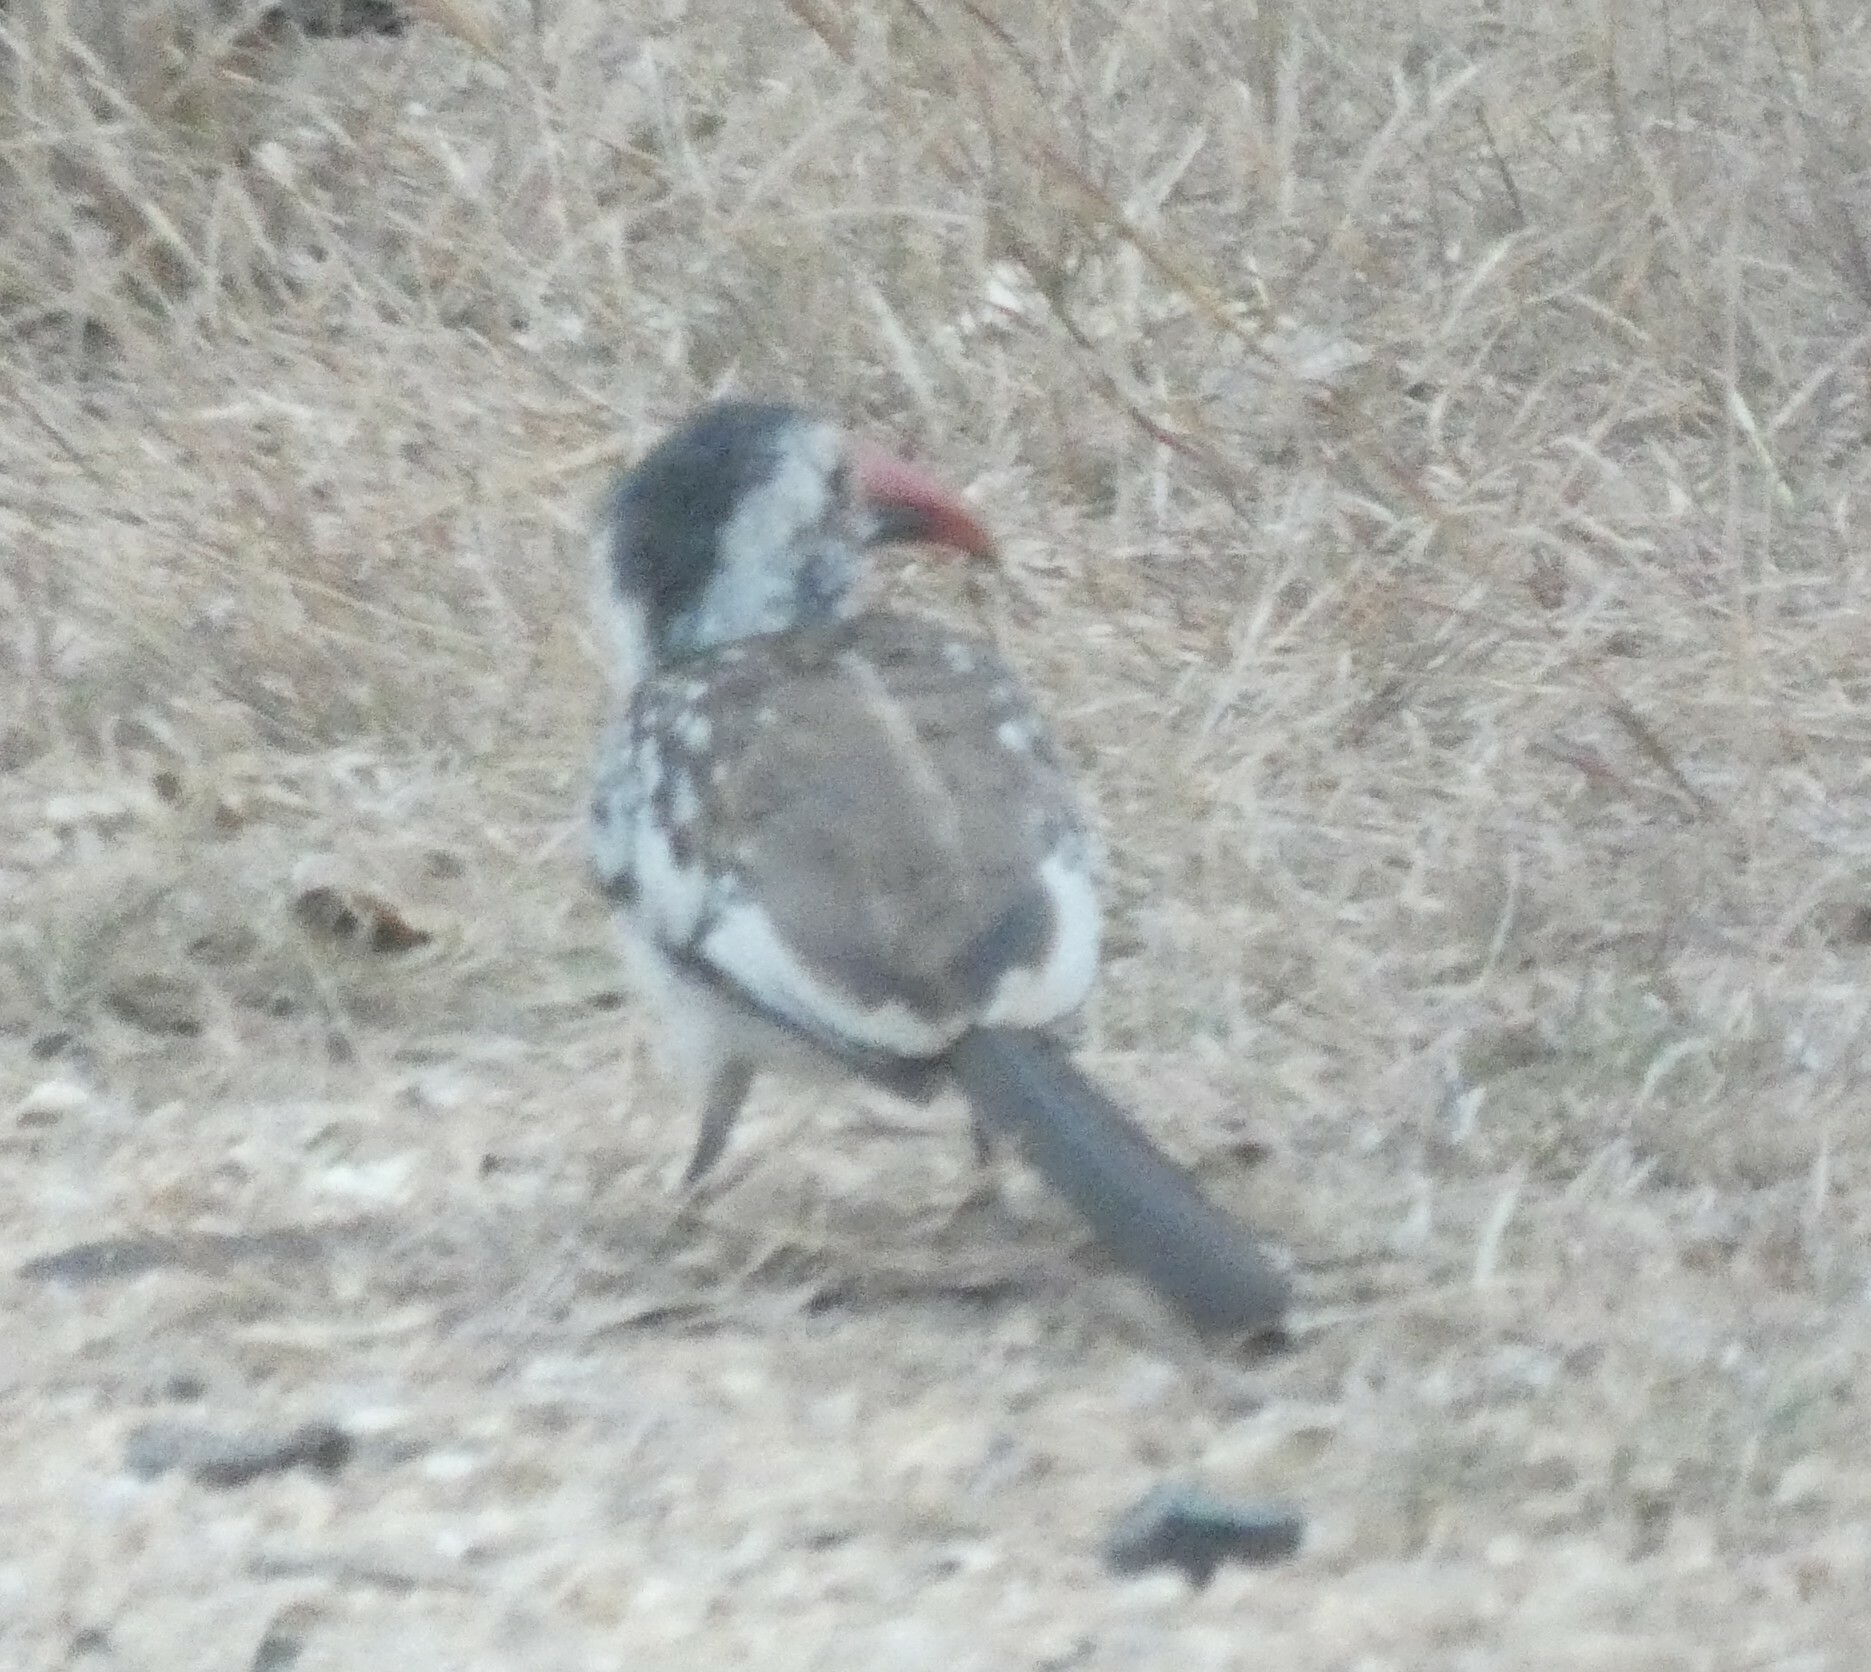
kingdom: Animalia
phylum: Chordata
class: Aves
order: Bucerotiformes
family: Bucerotidae
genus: Tockus
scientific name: Tockus rufirostris
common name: Southern red-billed hornbill
